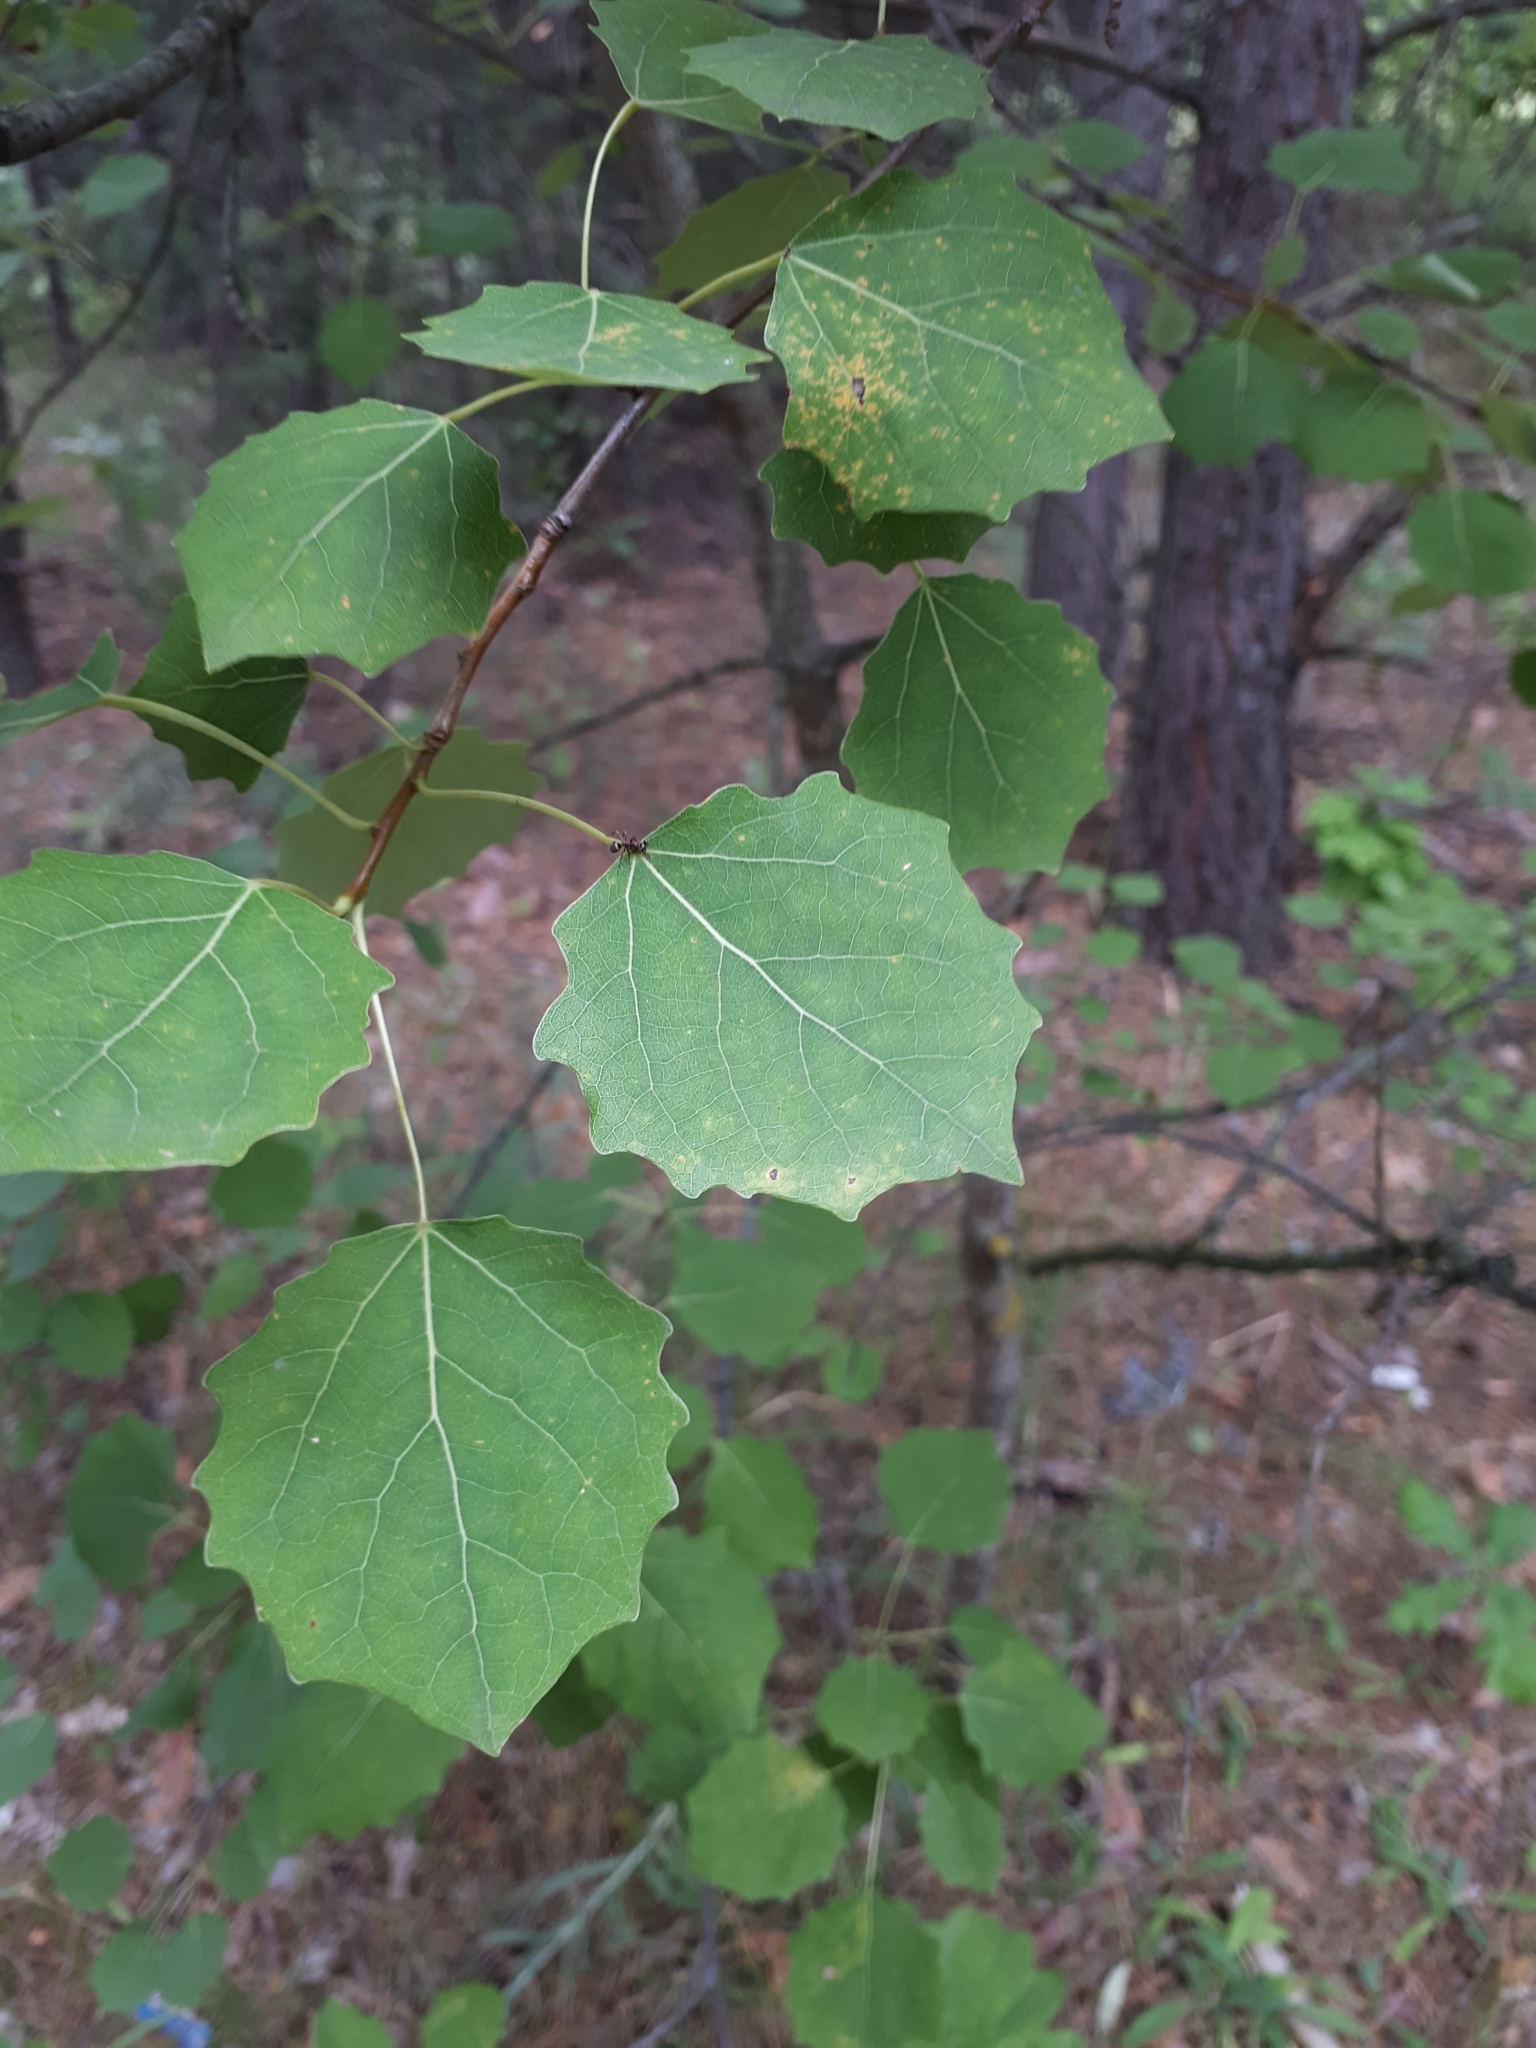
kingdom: Plantae
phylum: Tracheophyta
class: Magnoliopsida
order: Malpighiales
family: Salicaceae
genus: Populus
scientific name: Populus tremula
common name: European aspen
